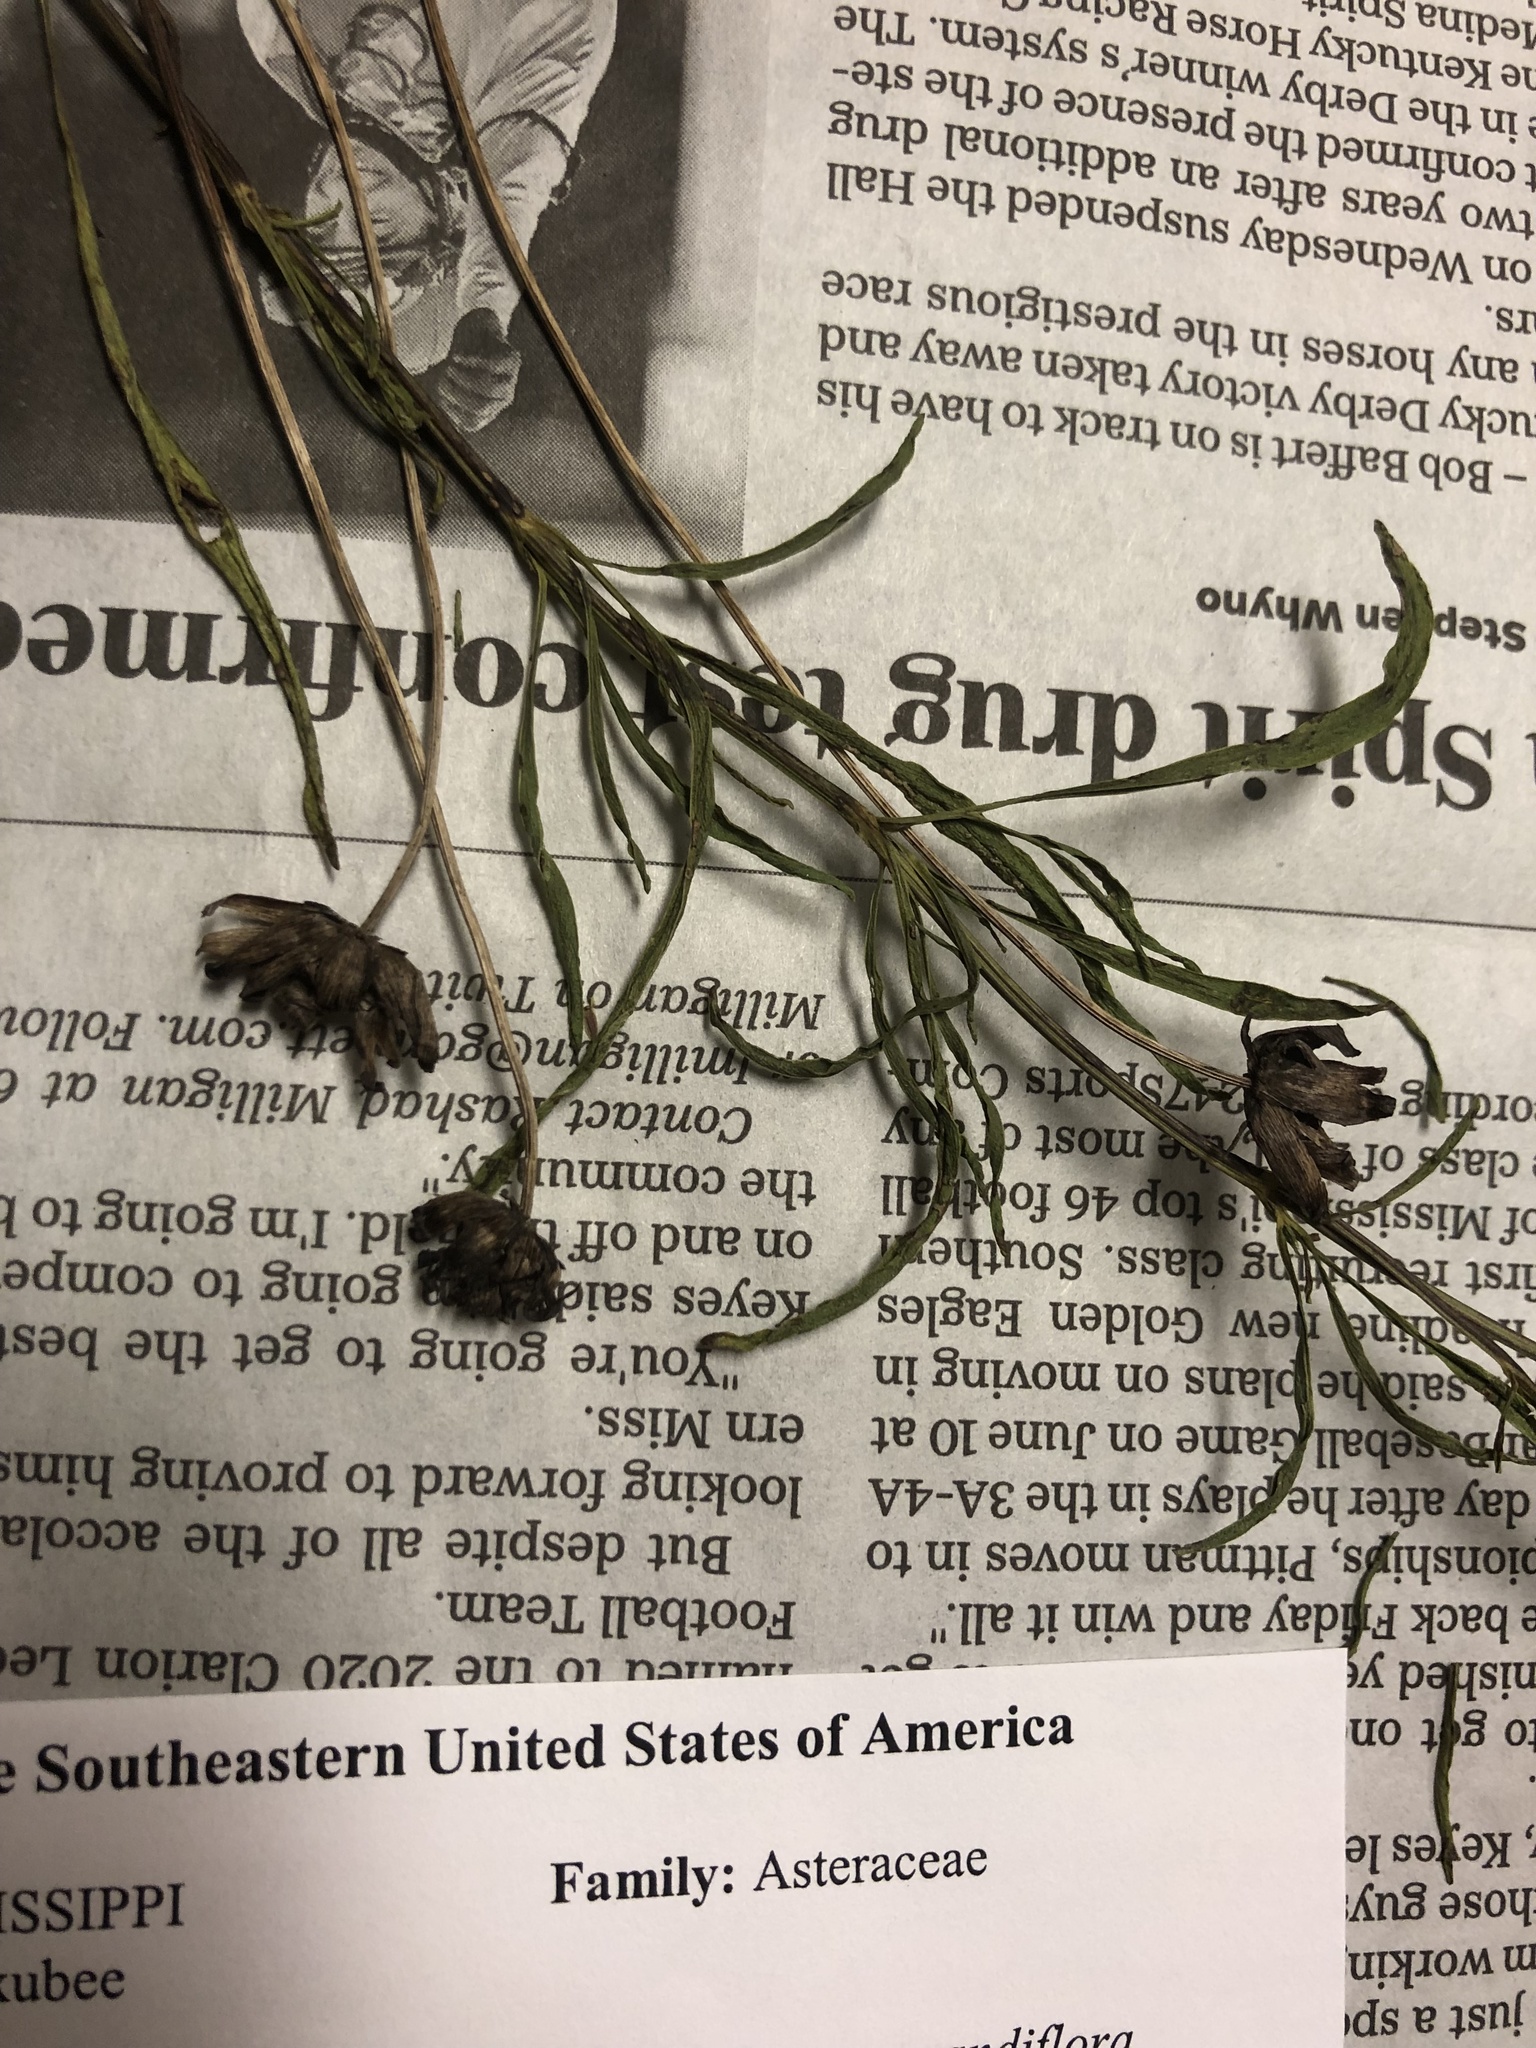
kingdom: Plantae
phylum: Tracheophyta
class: Magnoliopsida
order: Asterales
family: Asteraceae
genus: Coreopsis
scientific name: Coreopsis grandiflora
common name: Large-flowered tickseed
